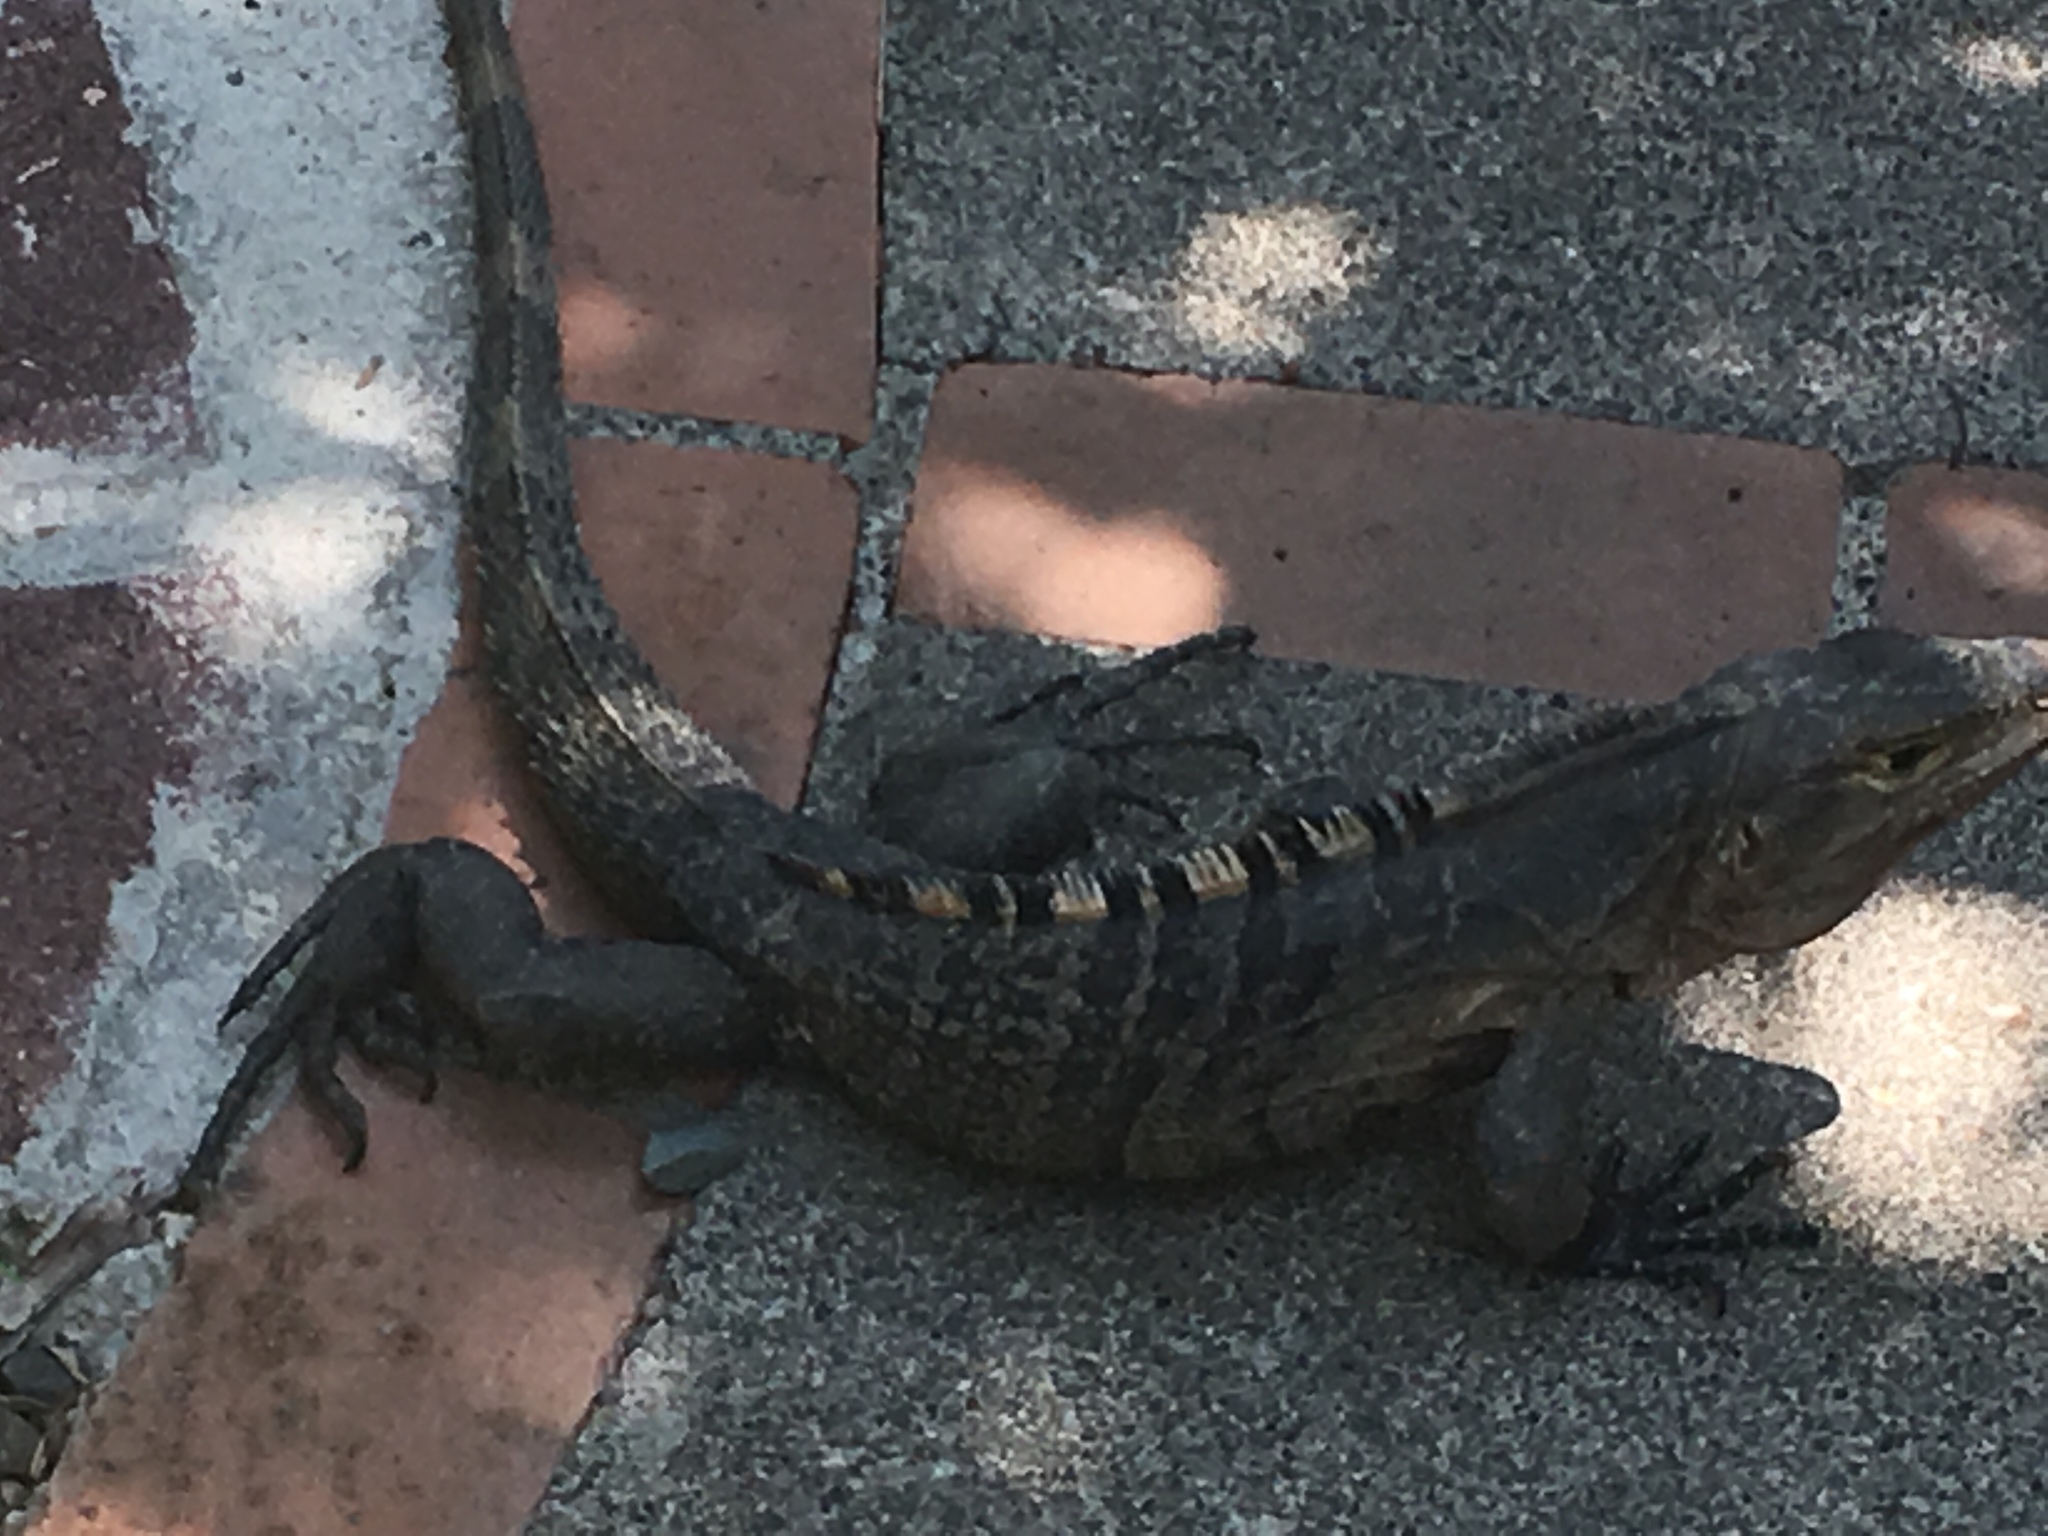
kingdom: Animalia
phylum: Chordata
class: Squamata
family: Iguanidae
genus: Ctenosaura
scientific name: Ctenosaura similis
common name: Black spiny-tailed iguana
